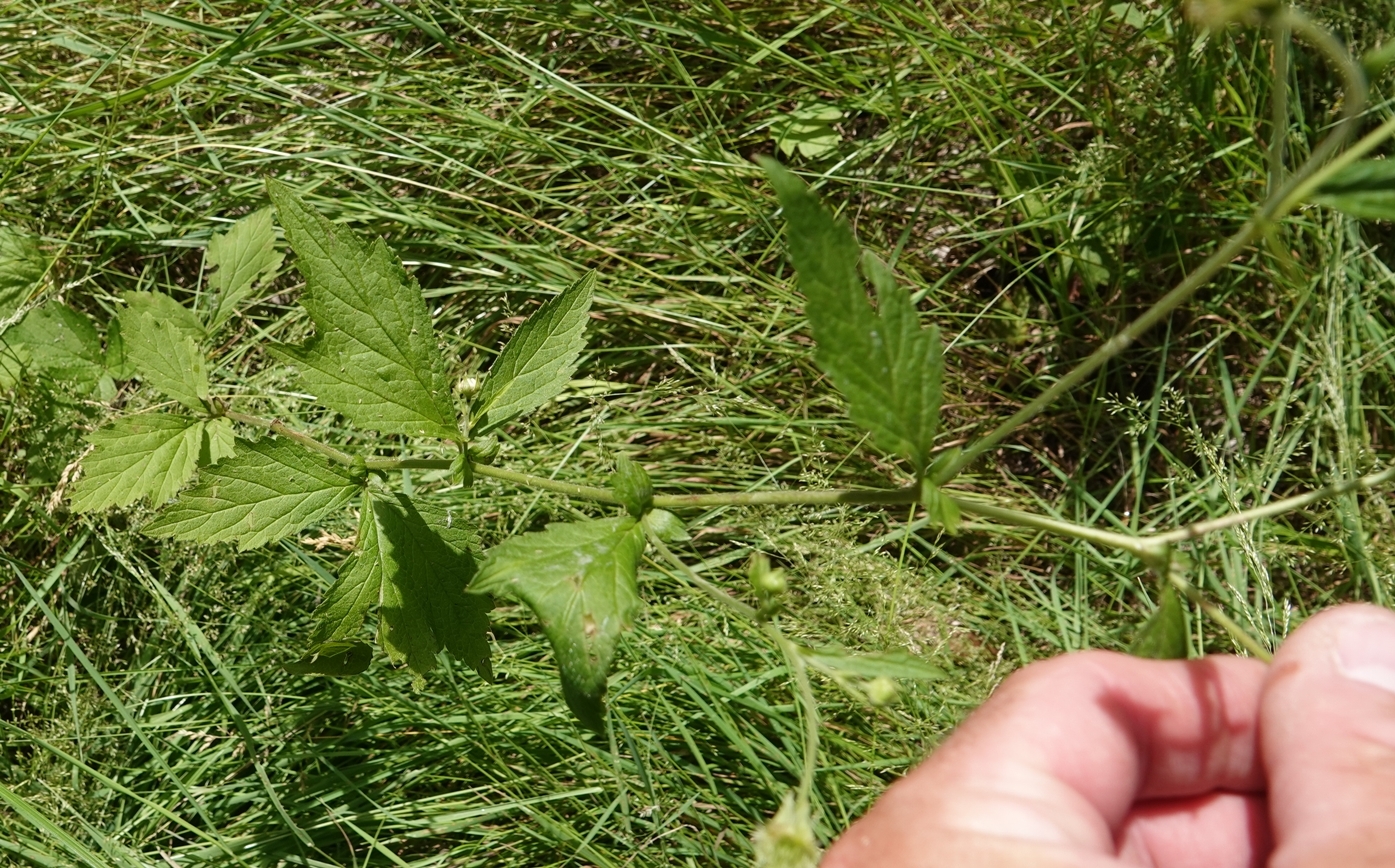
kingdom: Plantae
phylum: Tracheophyta
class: Magnoliopsida
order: Rosales
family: Rosaceae
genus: Geum
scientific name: Geum canadense
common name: White avens
